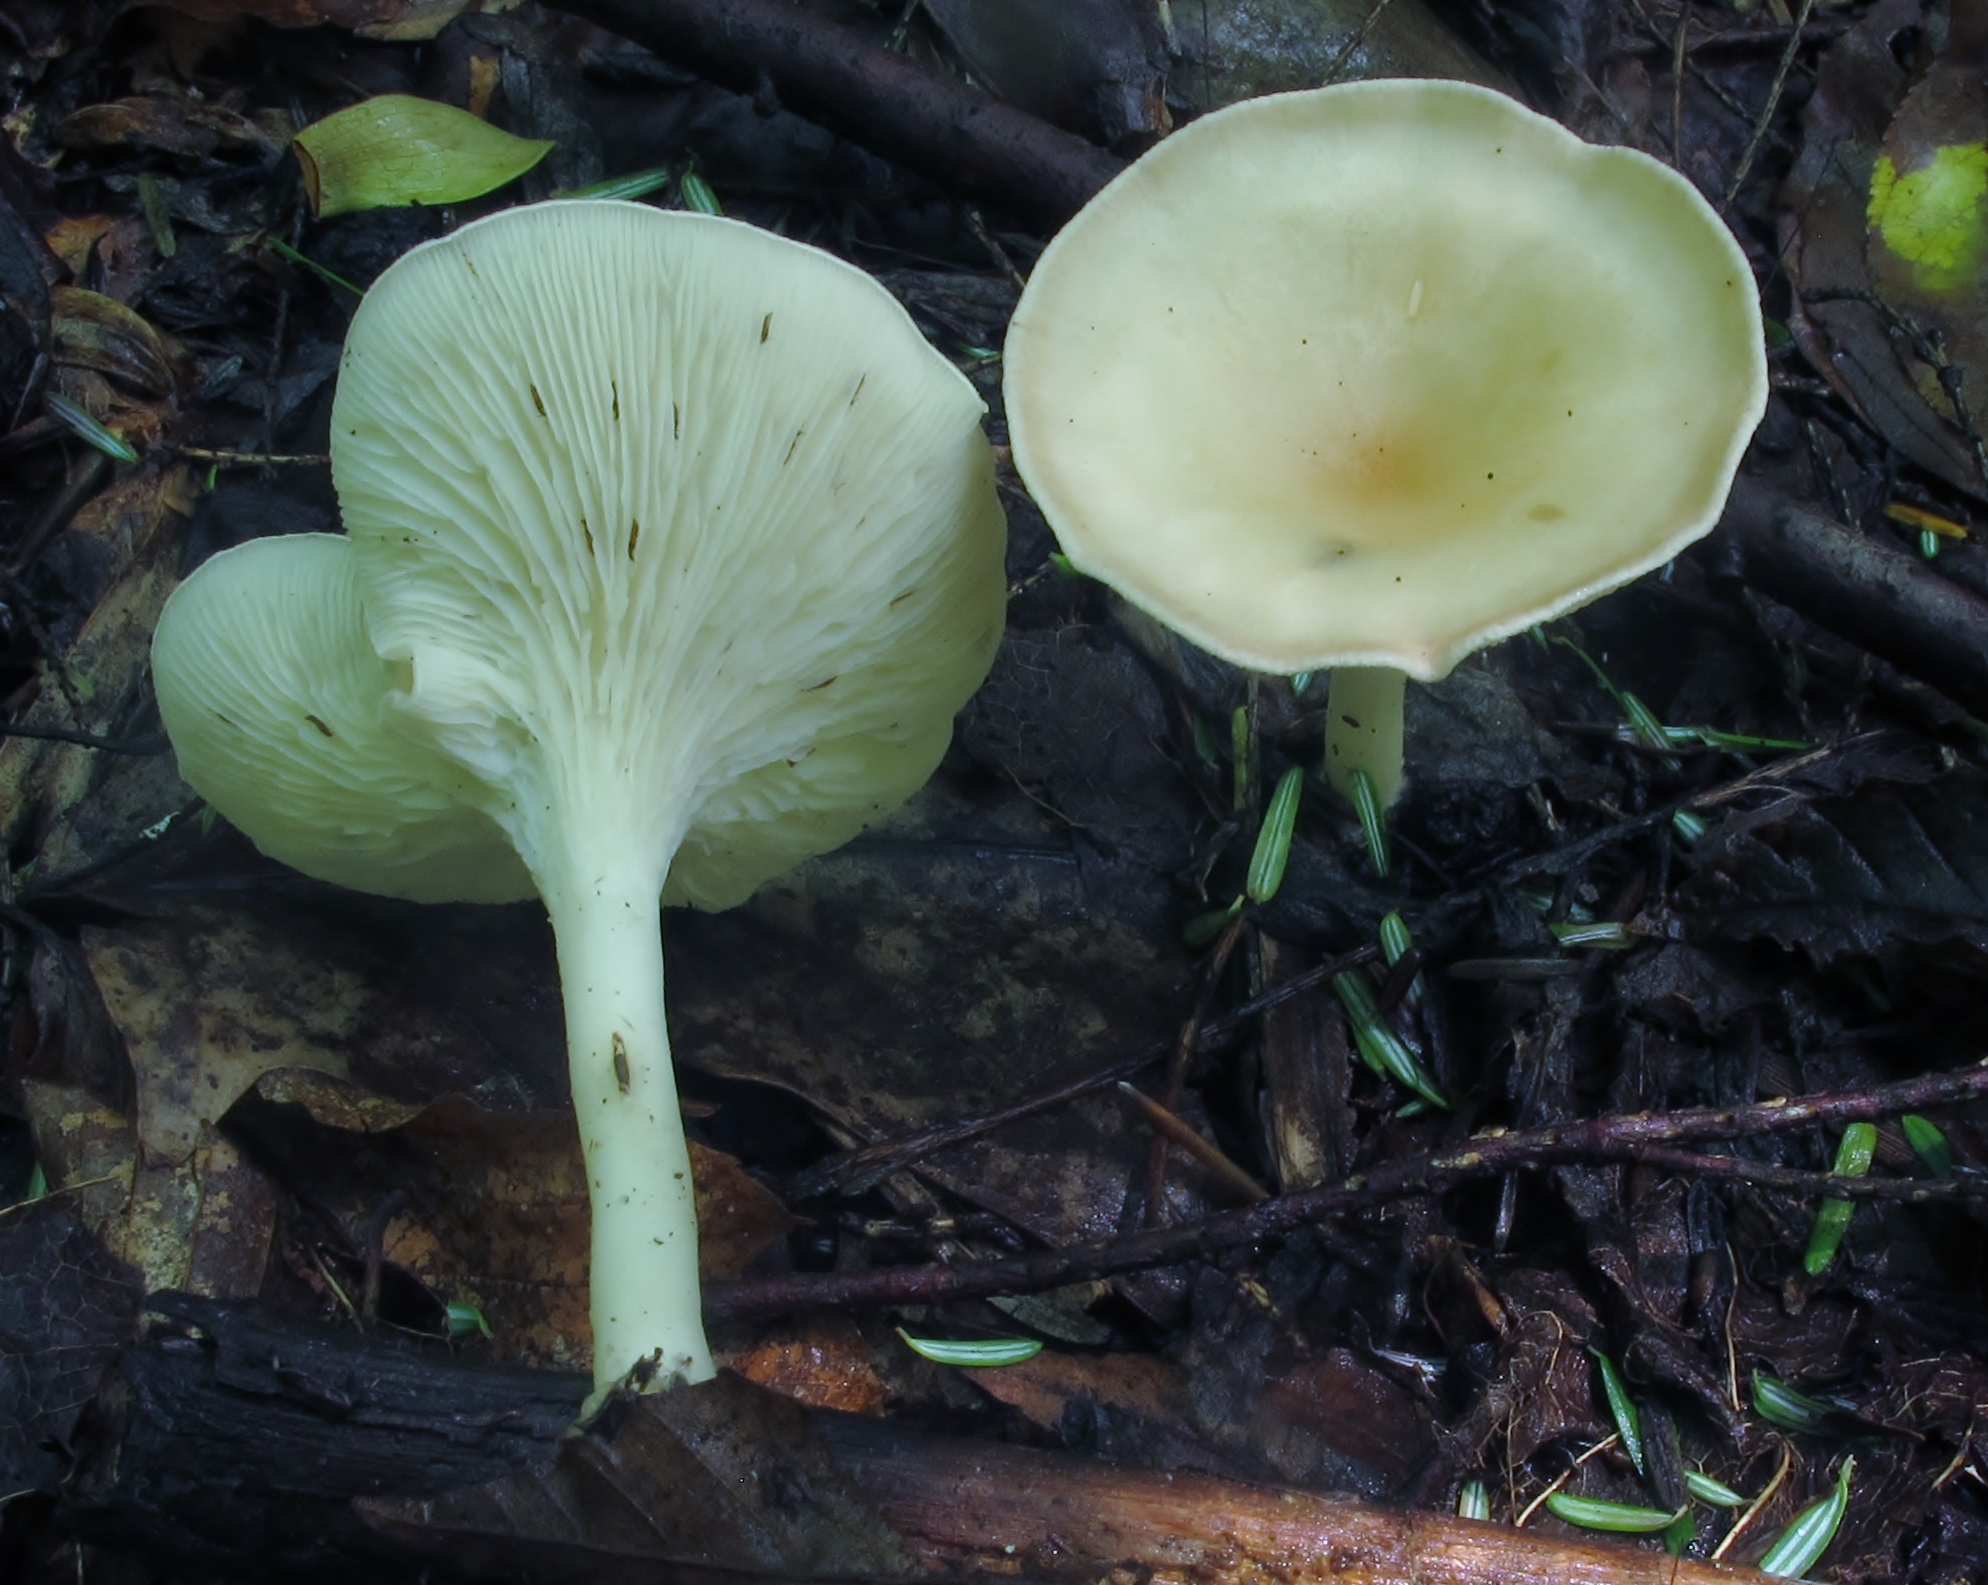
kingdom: Fungi
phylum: Basidiomycota
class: Agaricomycetes
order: Agaricales
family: Tricholomataceae
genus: Infundibulicybe
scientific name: Infundibulicybe gibba
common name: Common funnel
